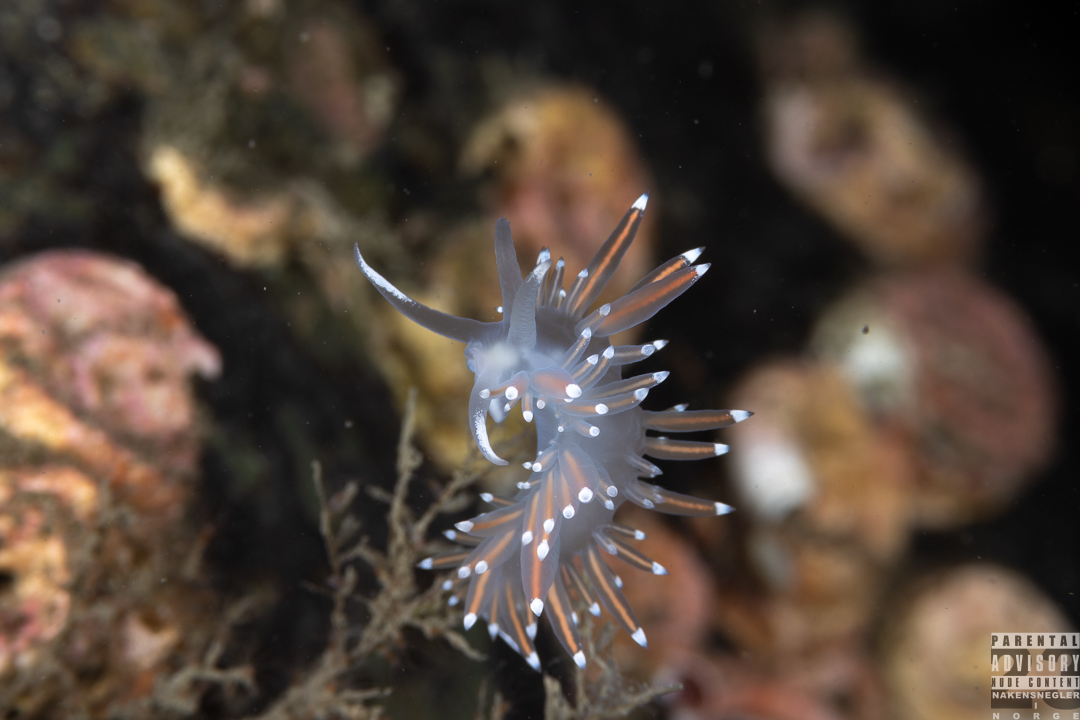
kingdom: Animalia
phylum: Mollusca
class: Gastropoda
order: Nudibranchia
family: Coryphellidae
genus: Coryphella
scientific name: Coryphella browni
